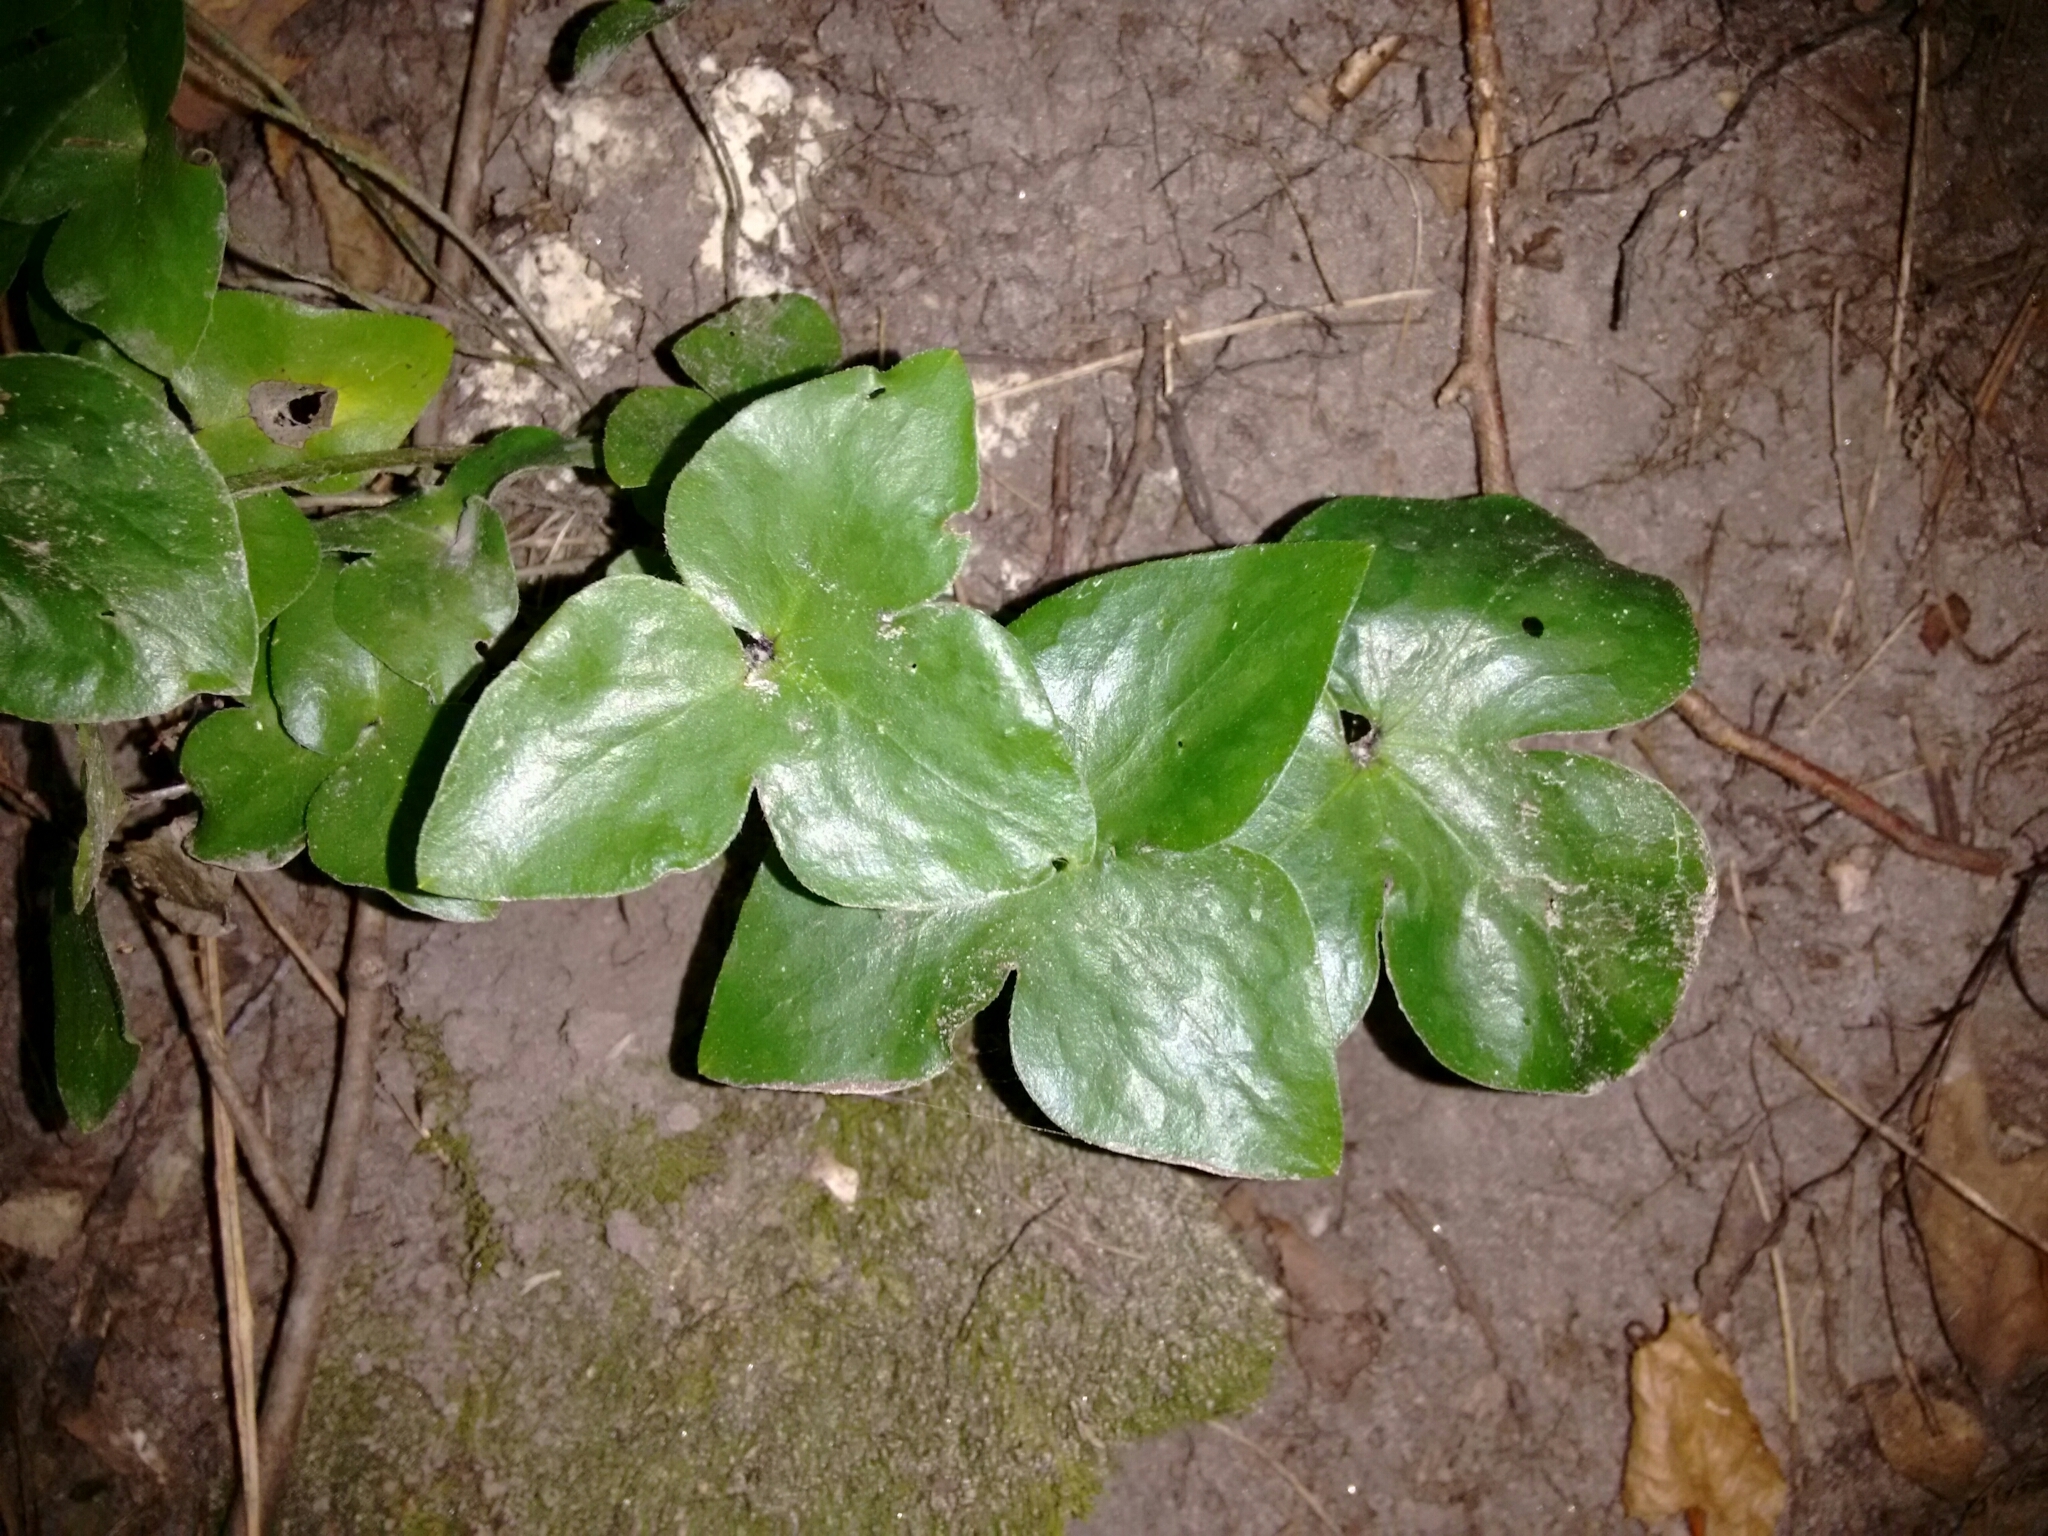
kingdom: Plantae
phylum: Tracheophyta
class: Magnoliopsida
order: Ranunculales
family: Ranunculaceae
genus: Hepatica
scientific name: Hepatica acutiloba
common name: Sharp-lobed hepatica
